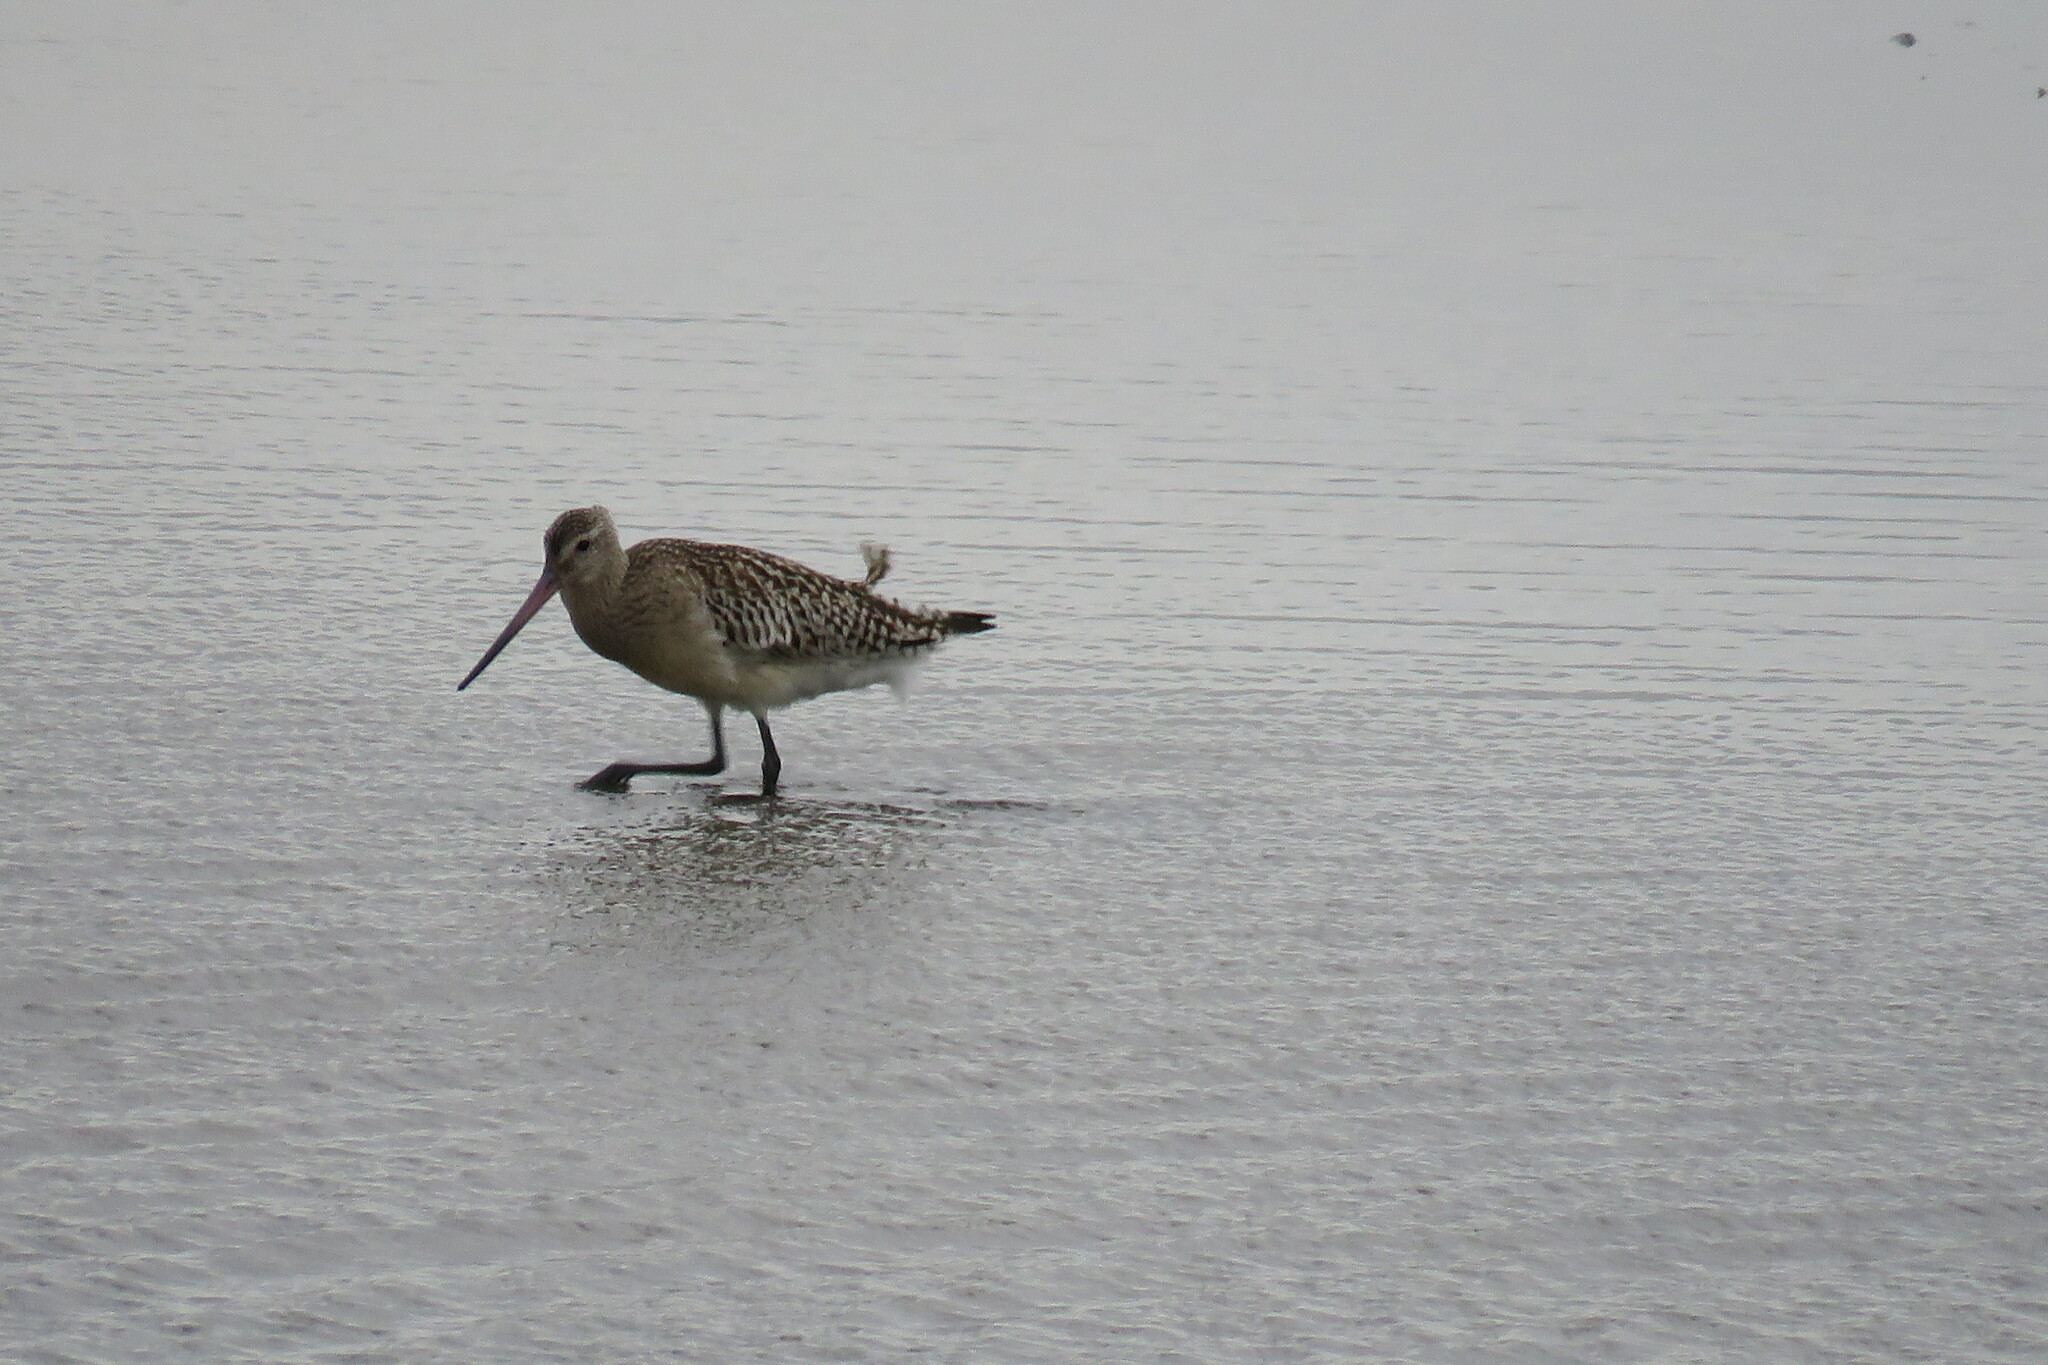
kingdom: Animalia
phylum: Chordata
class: Aves
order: Charadriiformes
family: Scolopacidae
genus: Limosa
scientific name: Limosa lapponica
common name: Bar-tailed godwit
